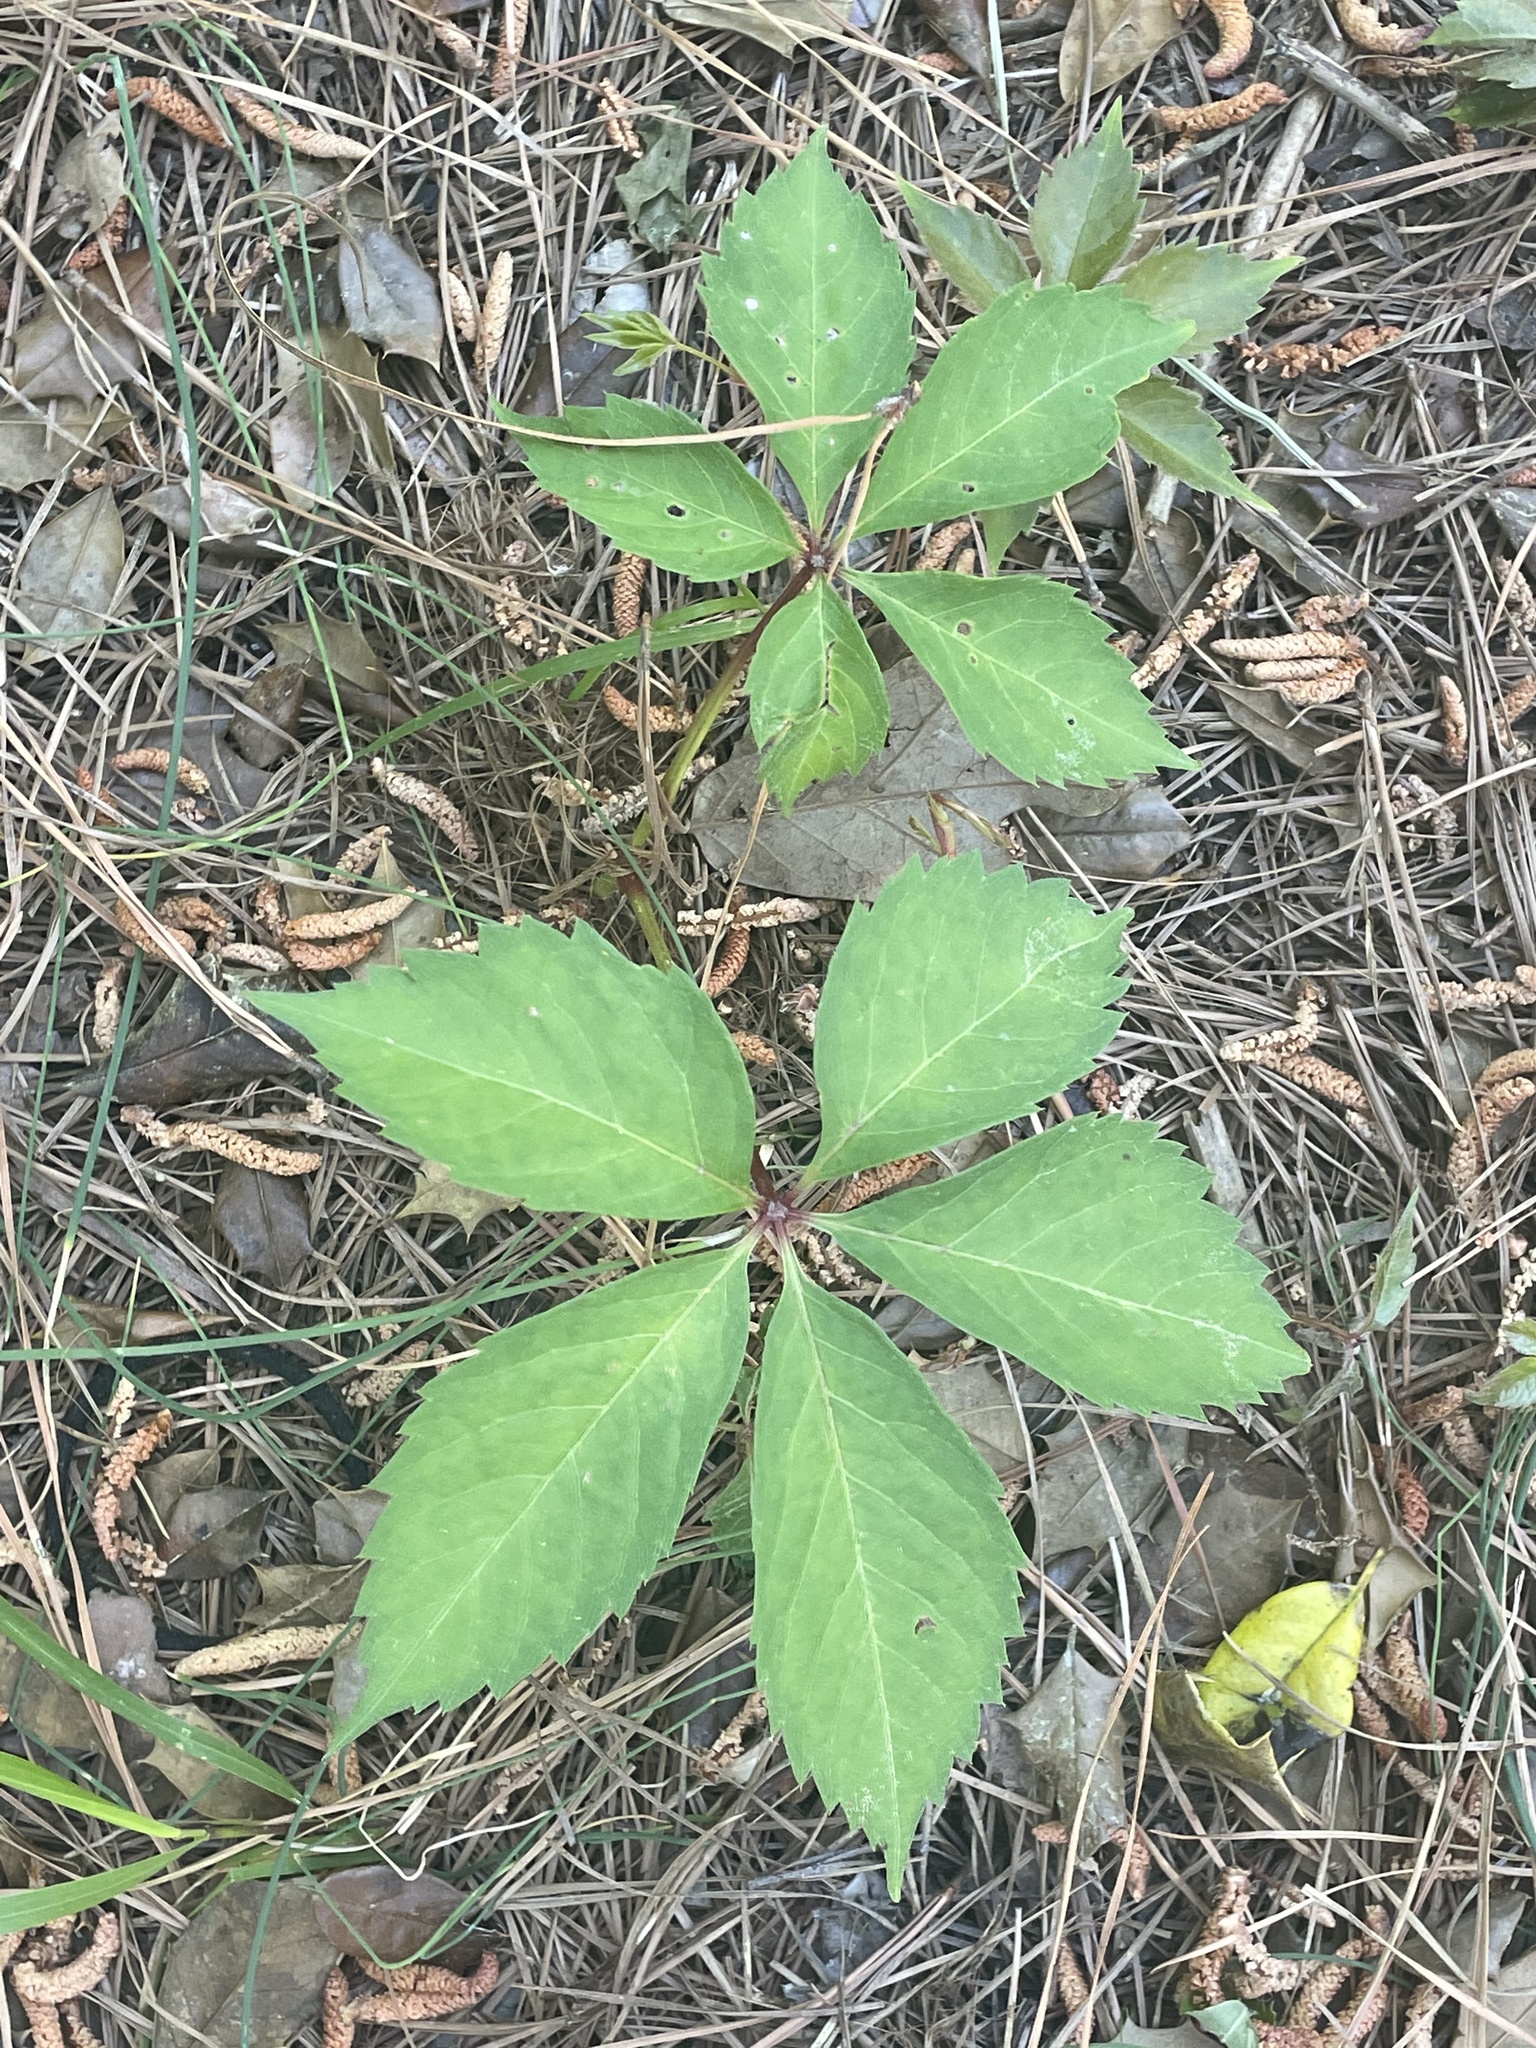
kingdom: Plantae
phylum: Tracheophyta
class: Magnoliopsida
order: Vitales
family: Vitaceae
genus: Parthenocissus
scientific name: Parthenocissus quinquefolia
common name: Virginia-creeper
